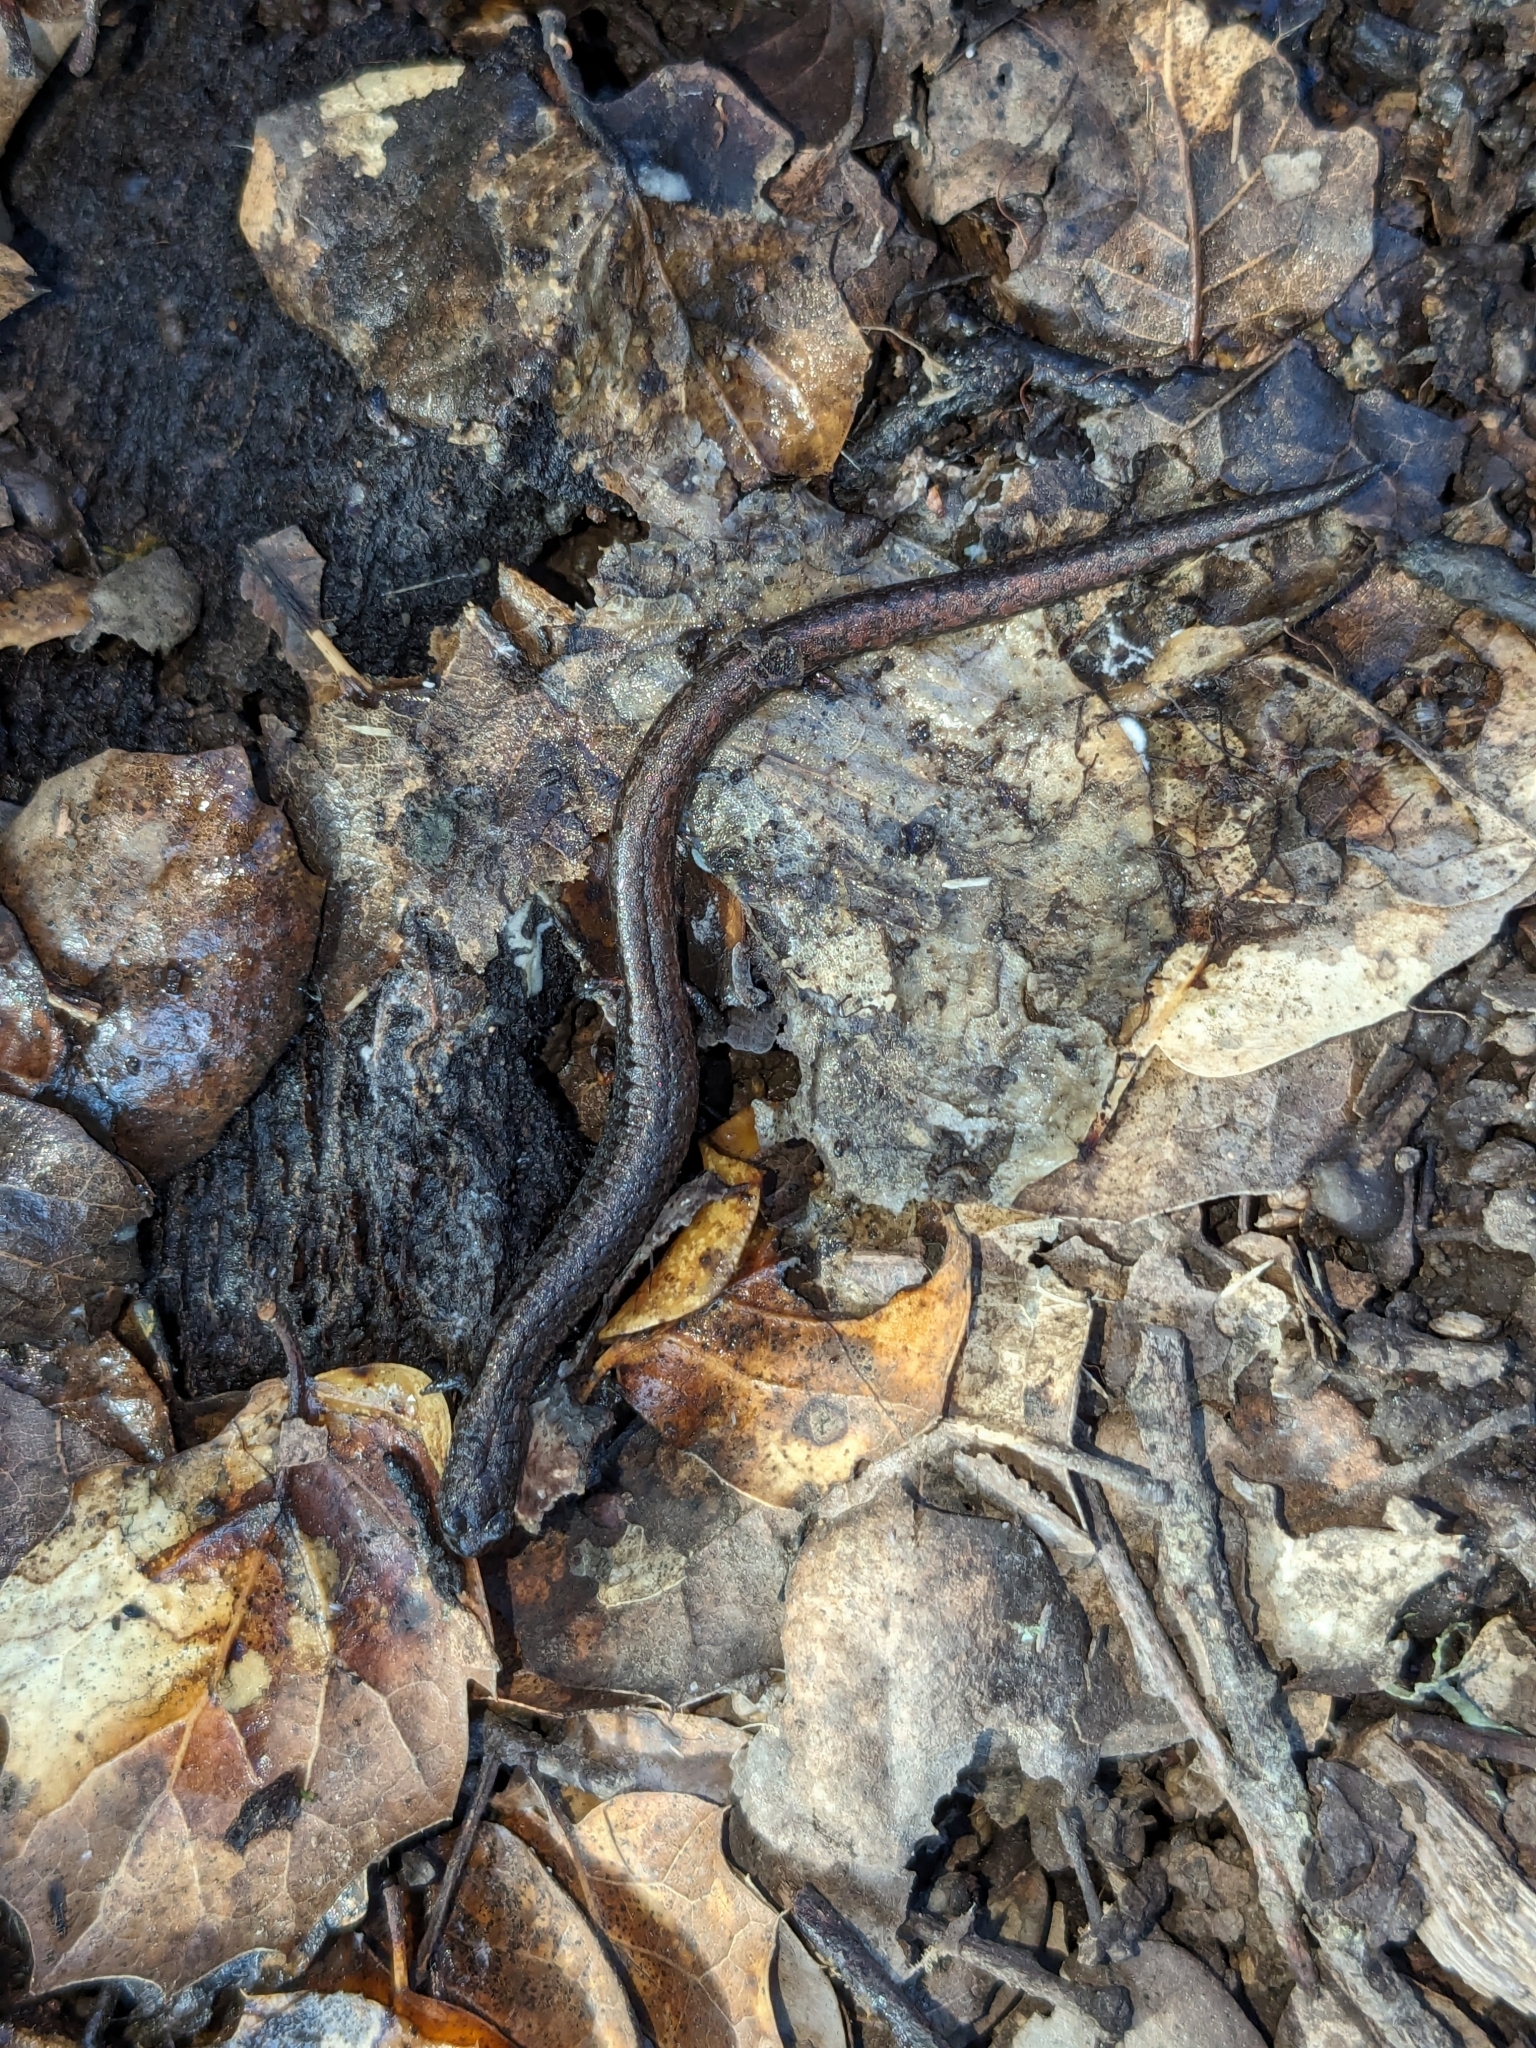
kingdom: Animalia
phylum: Chordata
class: Amphibia
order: Caudata
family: Plethodontidae
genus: Batrachoseps
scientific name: Batrachoseps attenuatus
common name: California slender salamander
